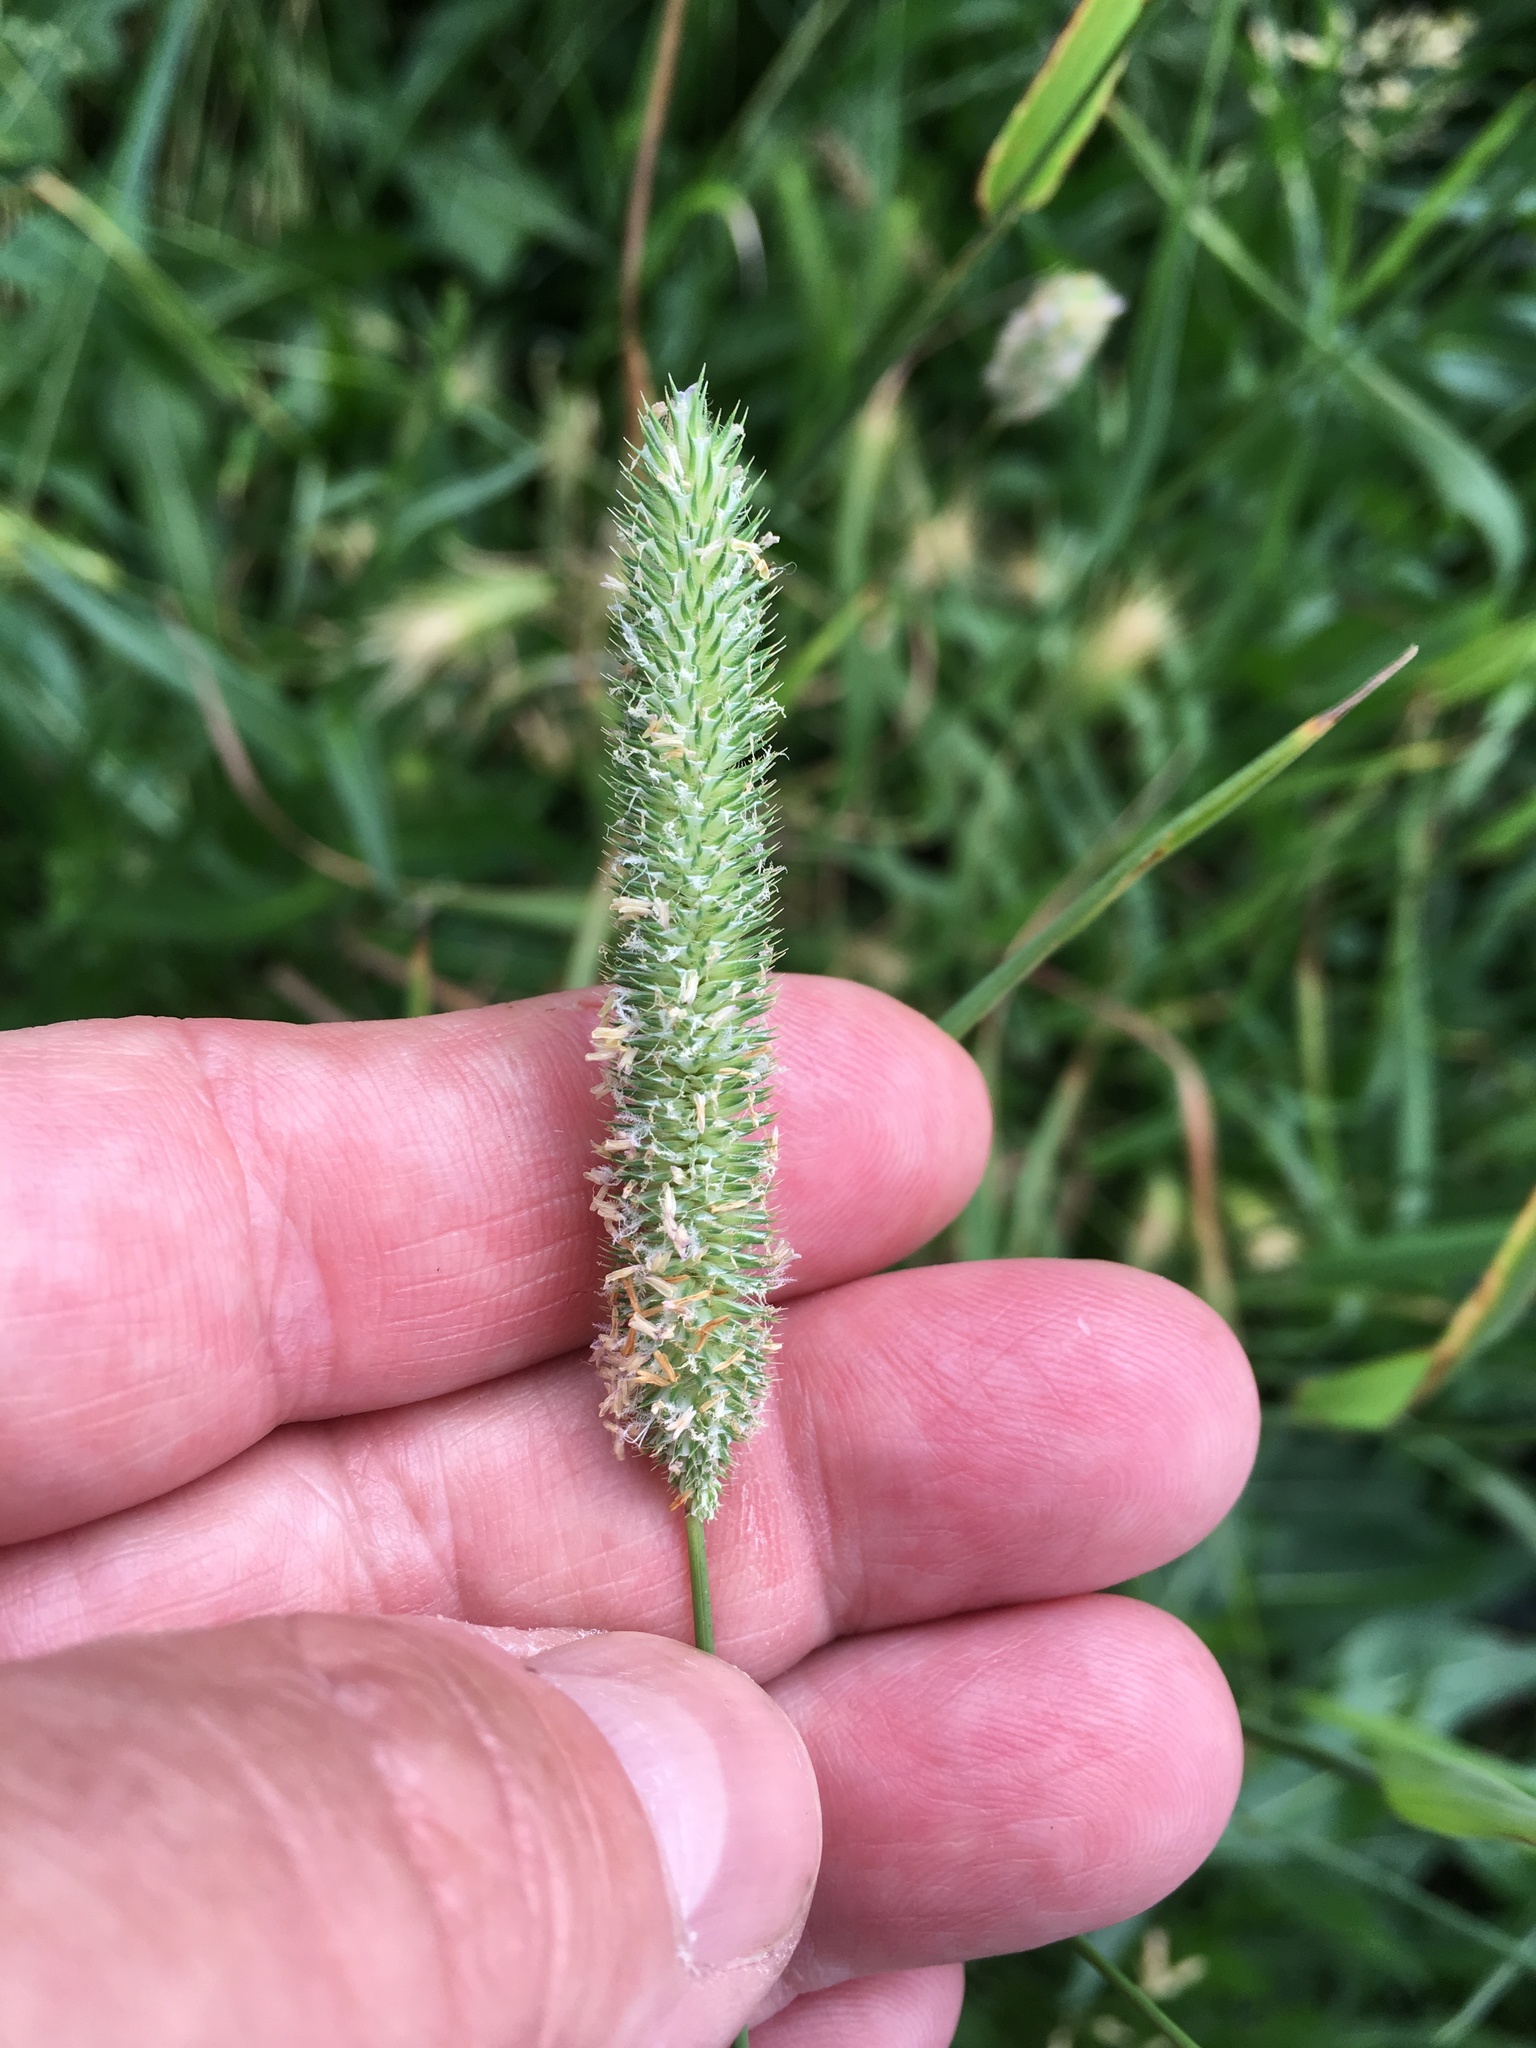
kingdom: Plantae
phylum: Tracheophyta
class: Liliopsida
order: Poales
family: Poaceae
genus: Phleum
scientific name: Phleum pratense
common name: Timothy grass
